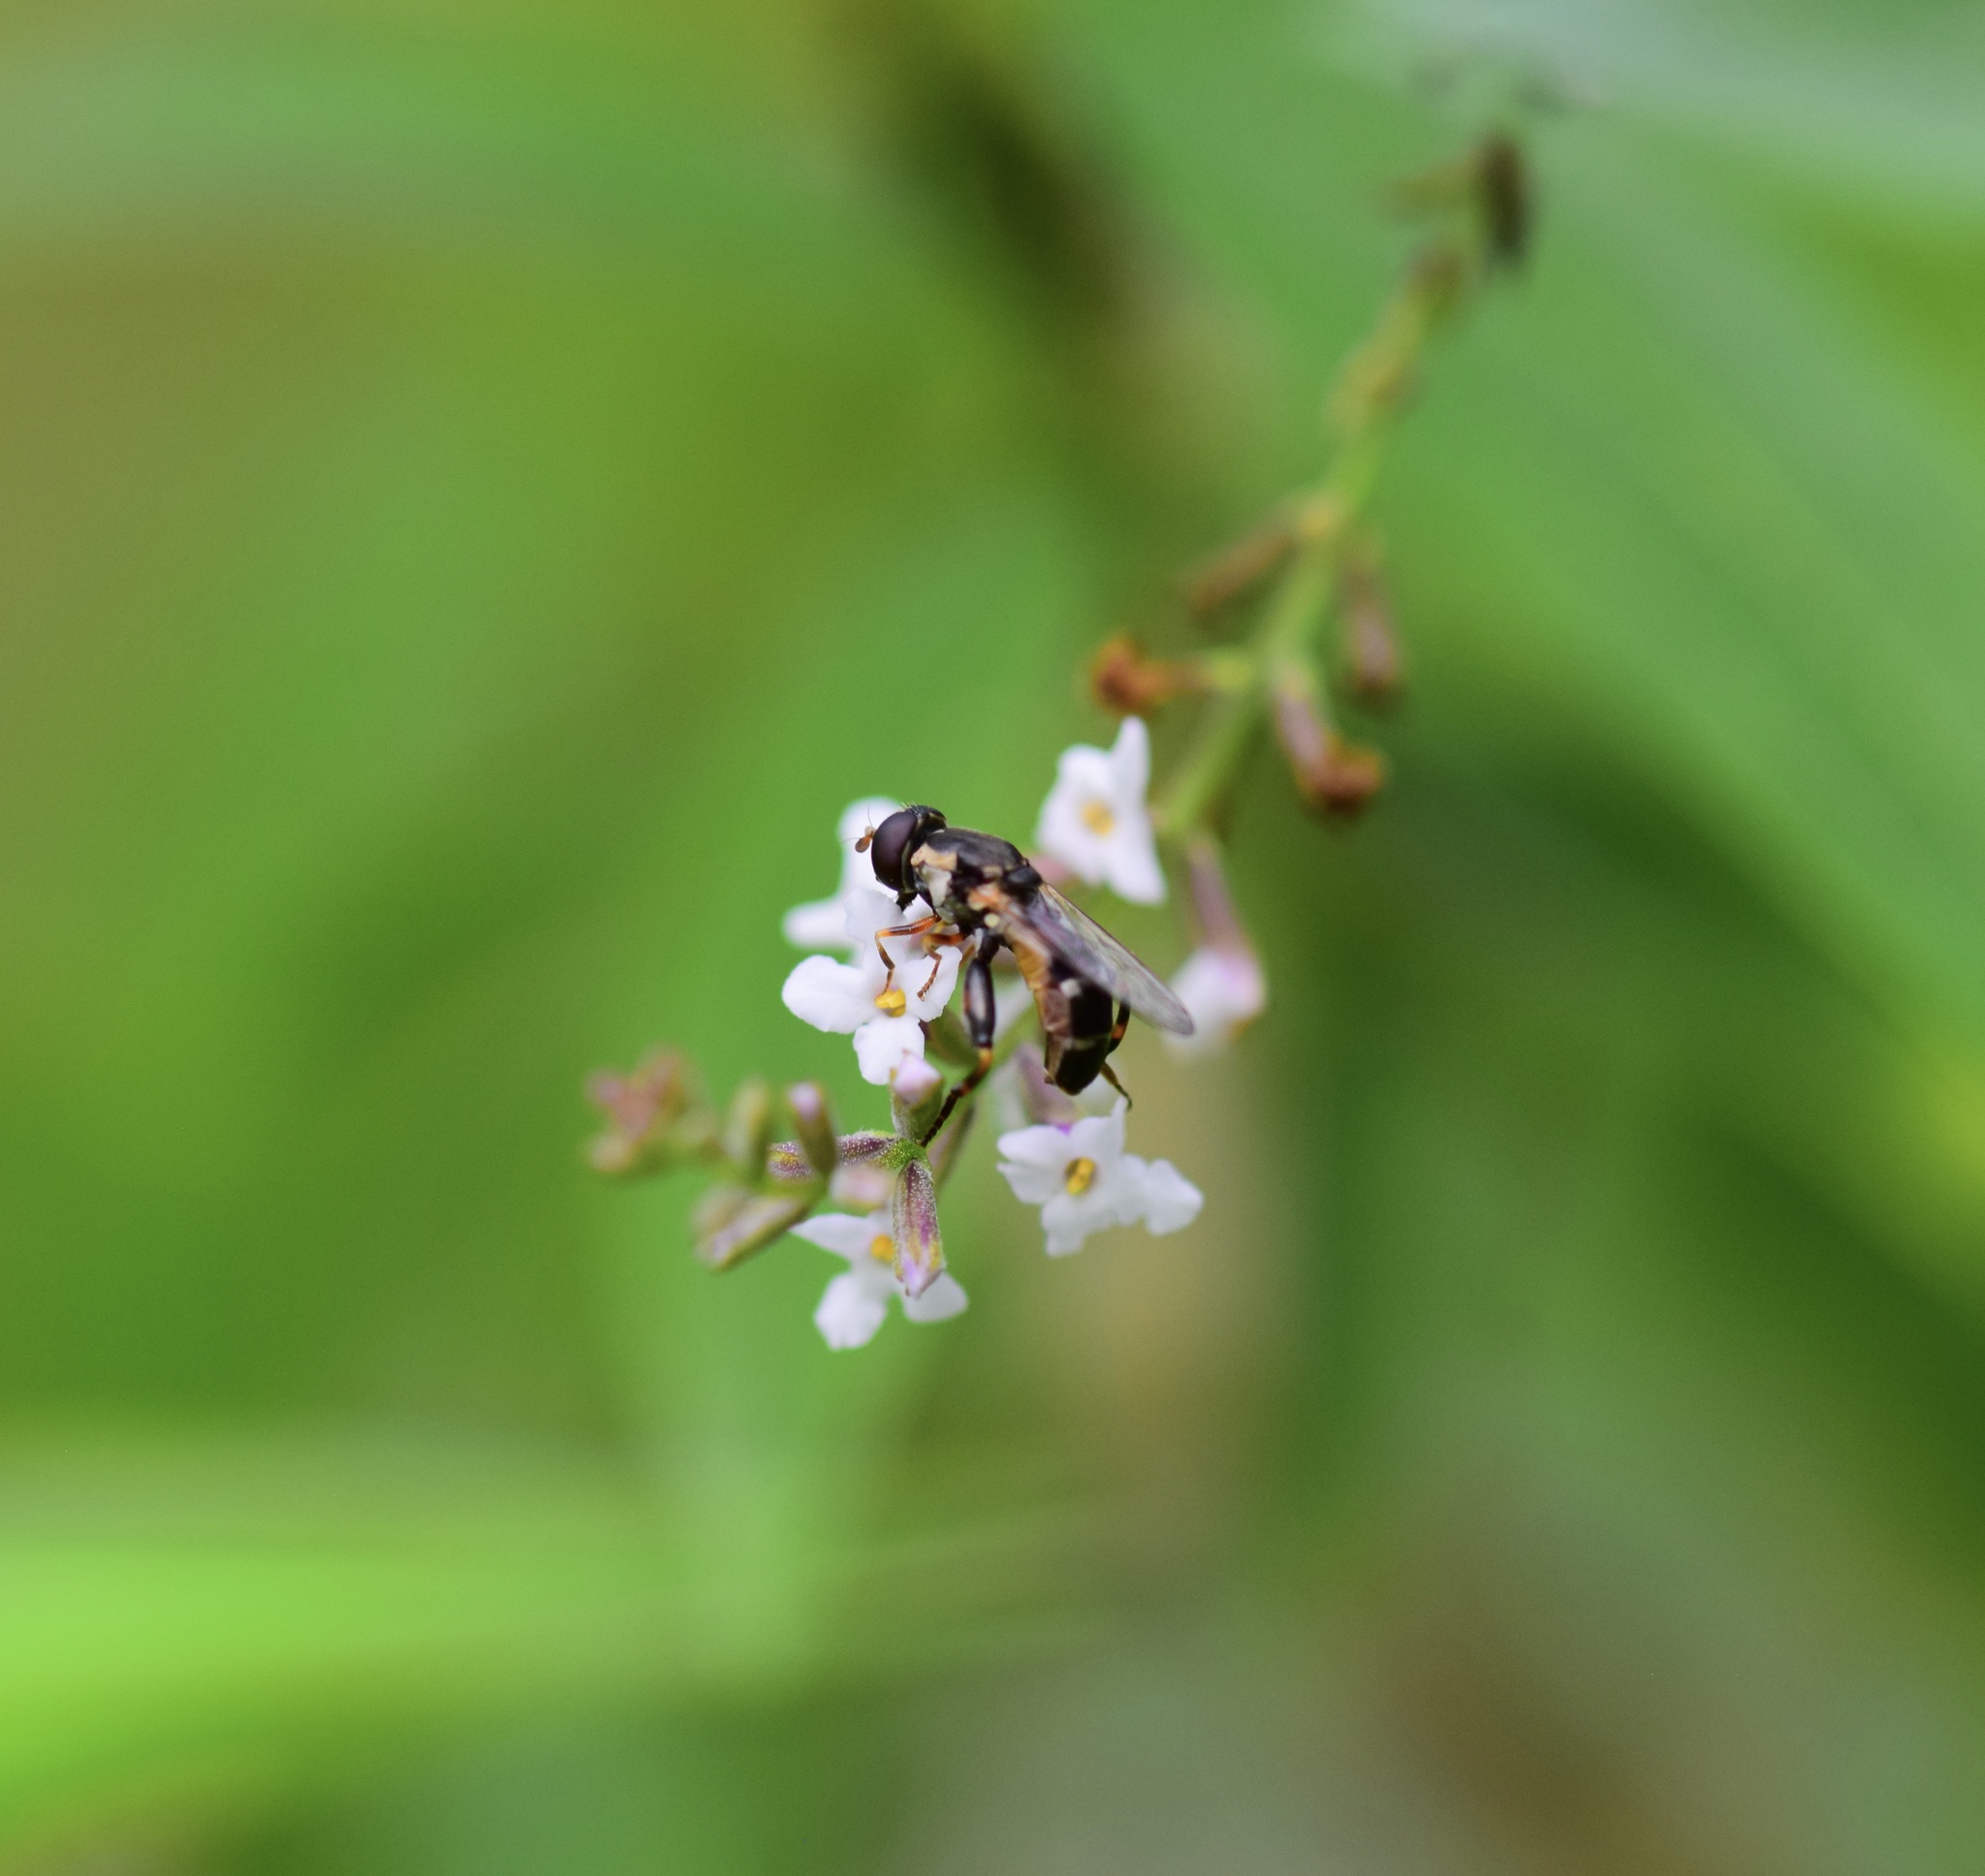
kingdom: Animalia
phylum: Arthropoda
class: Insecta
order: Diptera
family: Syrphidae
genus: Syritta
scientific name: Syritta pipiens
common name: Hover fly
